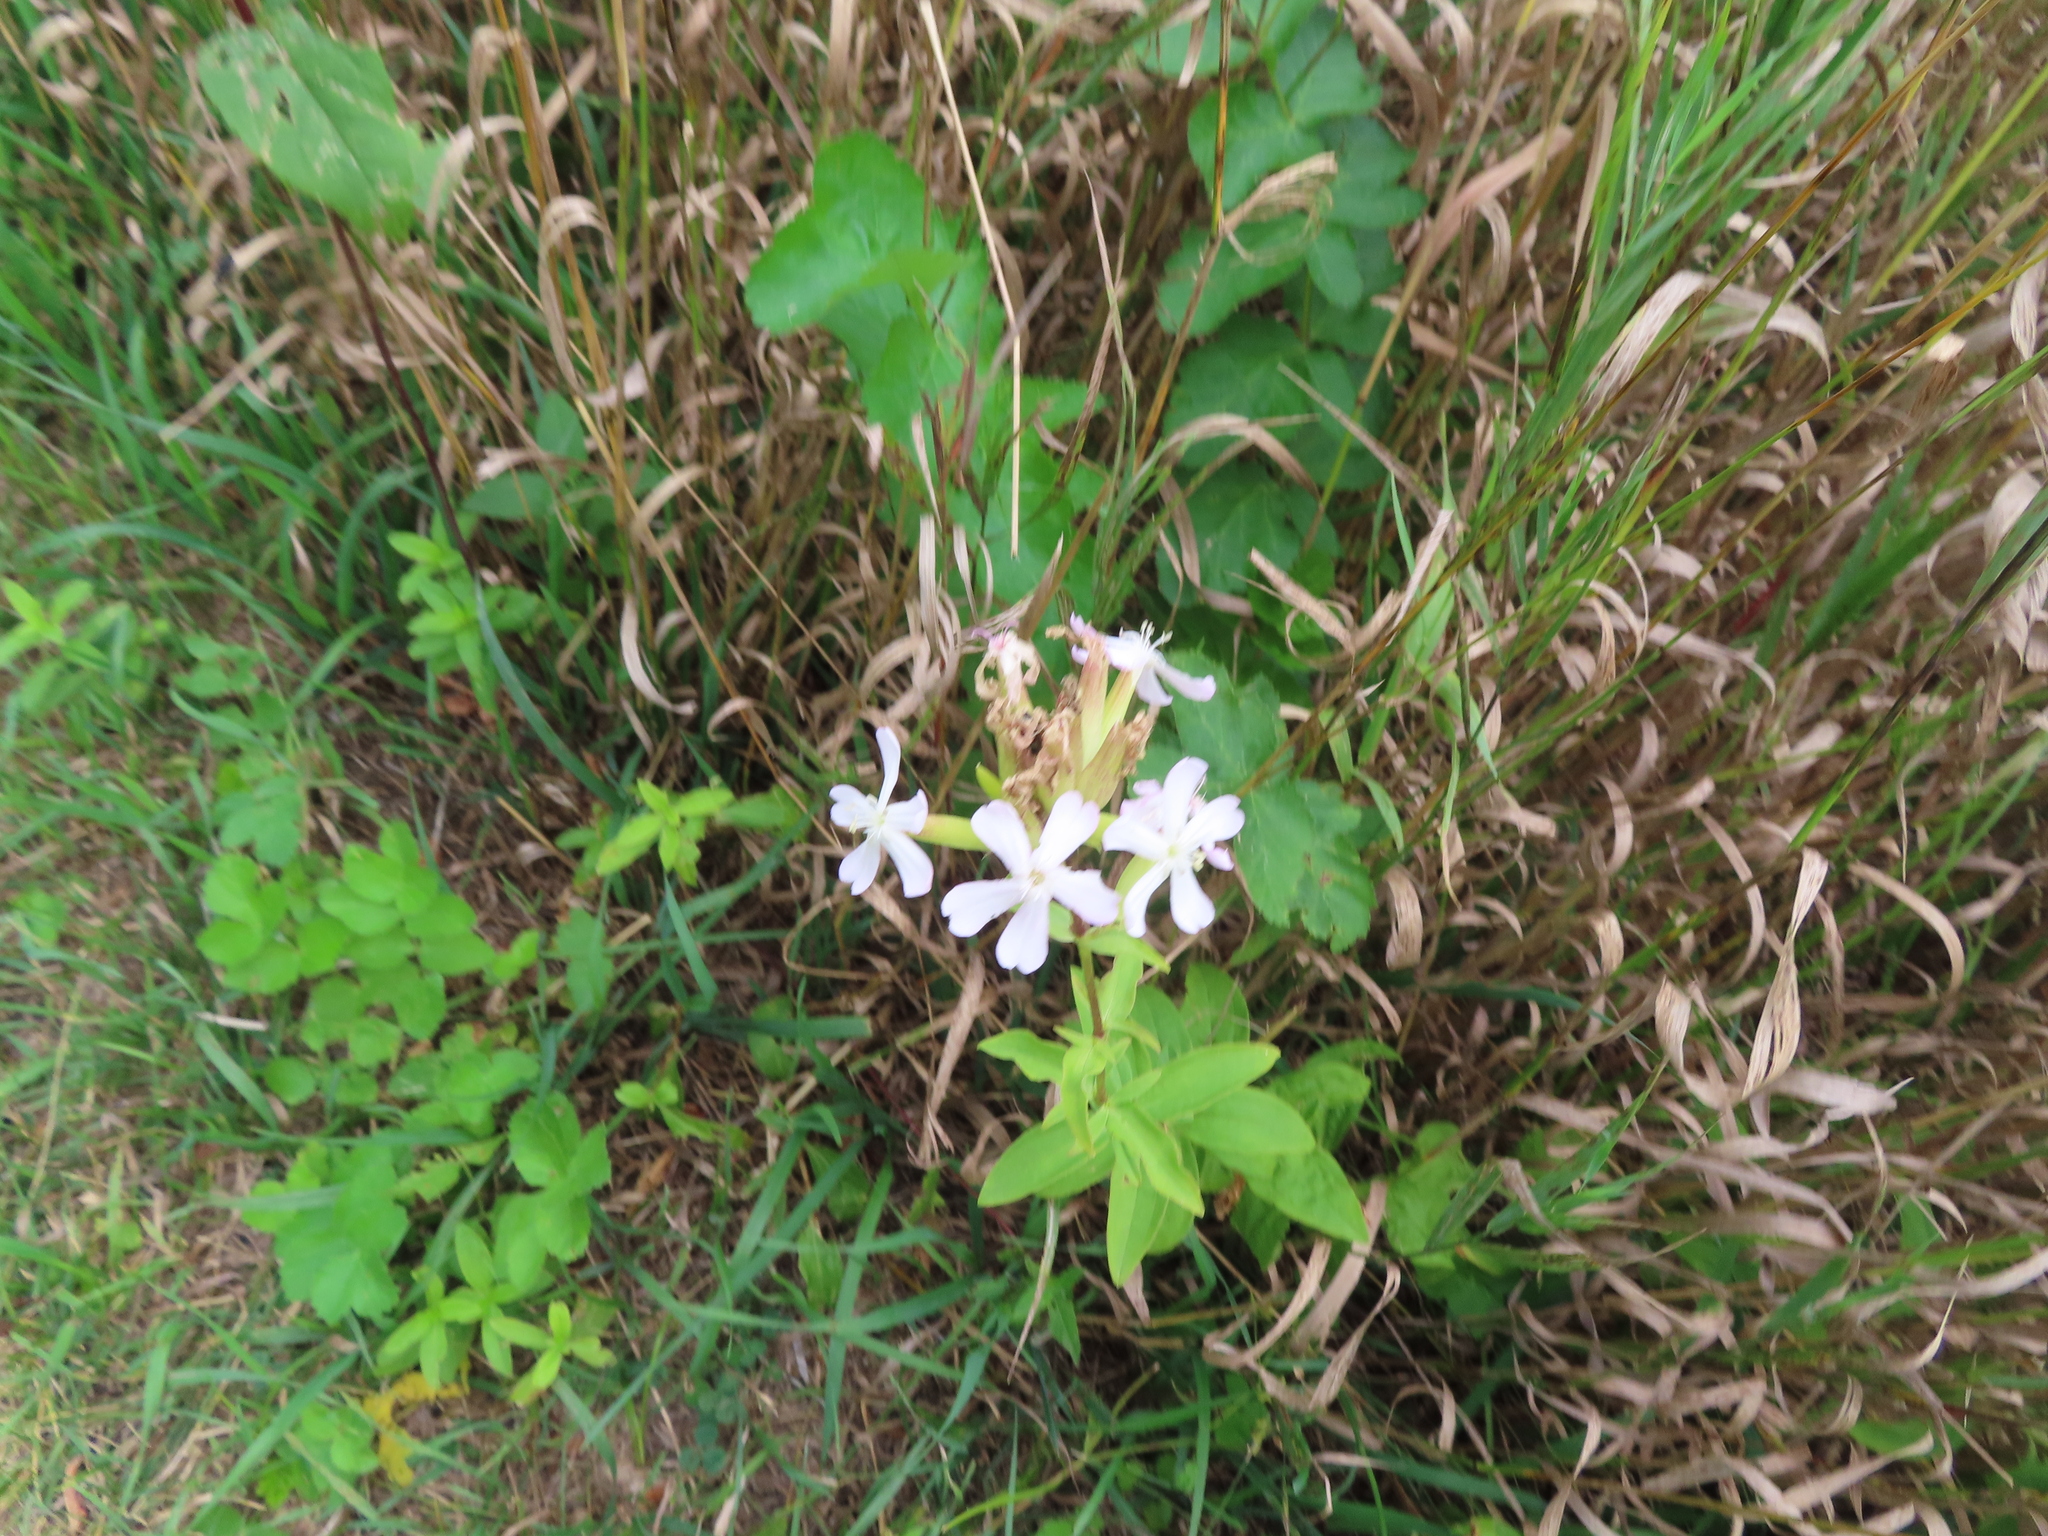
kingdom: Plantae
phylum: Tracheophyta
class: Magnoliopsida
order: Caryophyllales
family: Caryophyllaceae
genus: Saponaria
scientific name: Saponaria officinalis
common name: Soapwort
